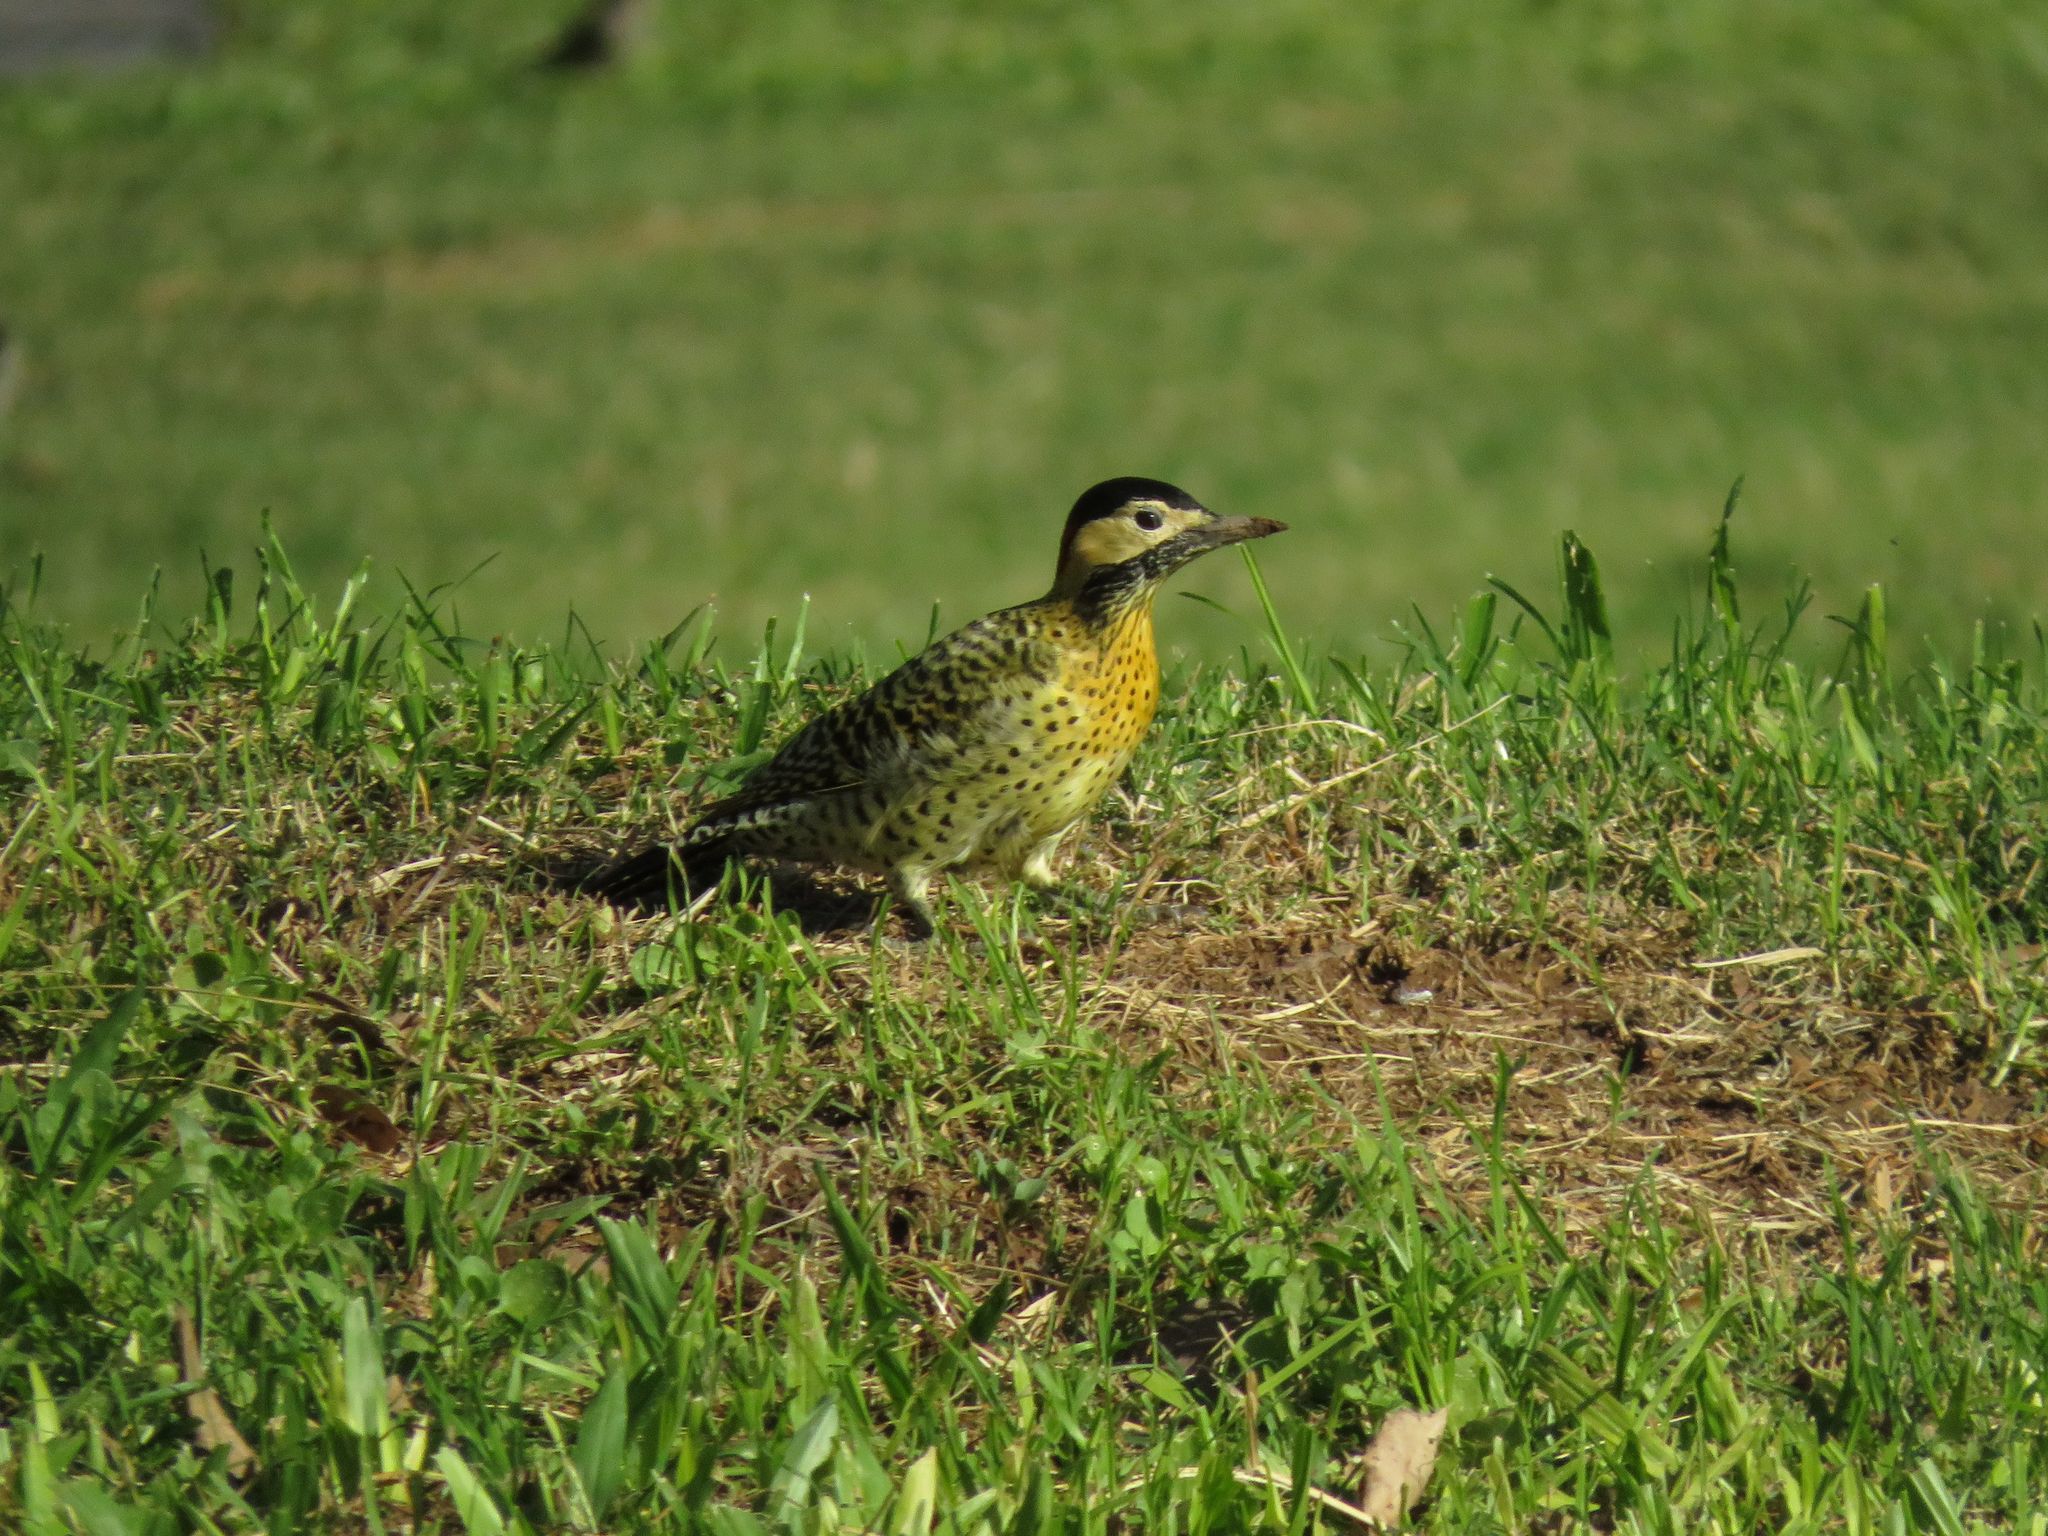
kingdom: Animalia
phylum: Chordata
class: Aves
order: Piciformes
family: Picidae
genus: Colaptes
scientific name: Colaptes melanochloros
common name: Green-barred woodpecker
